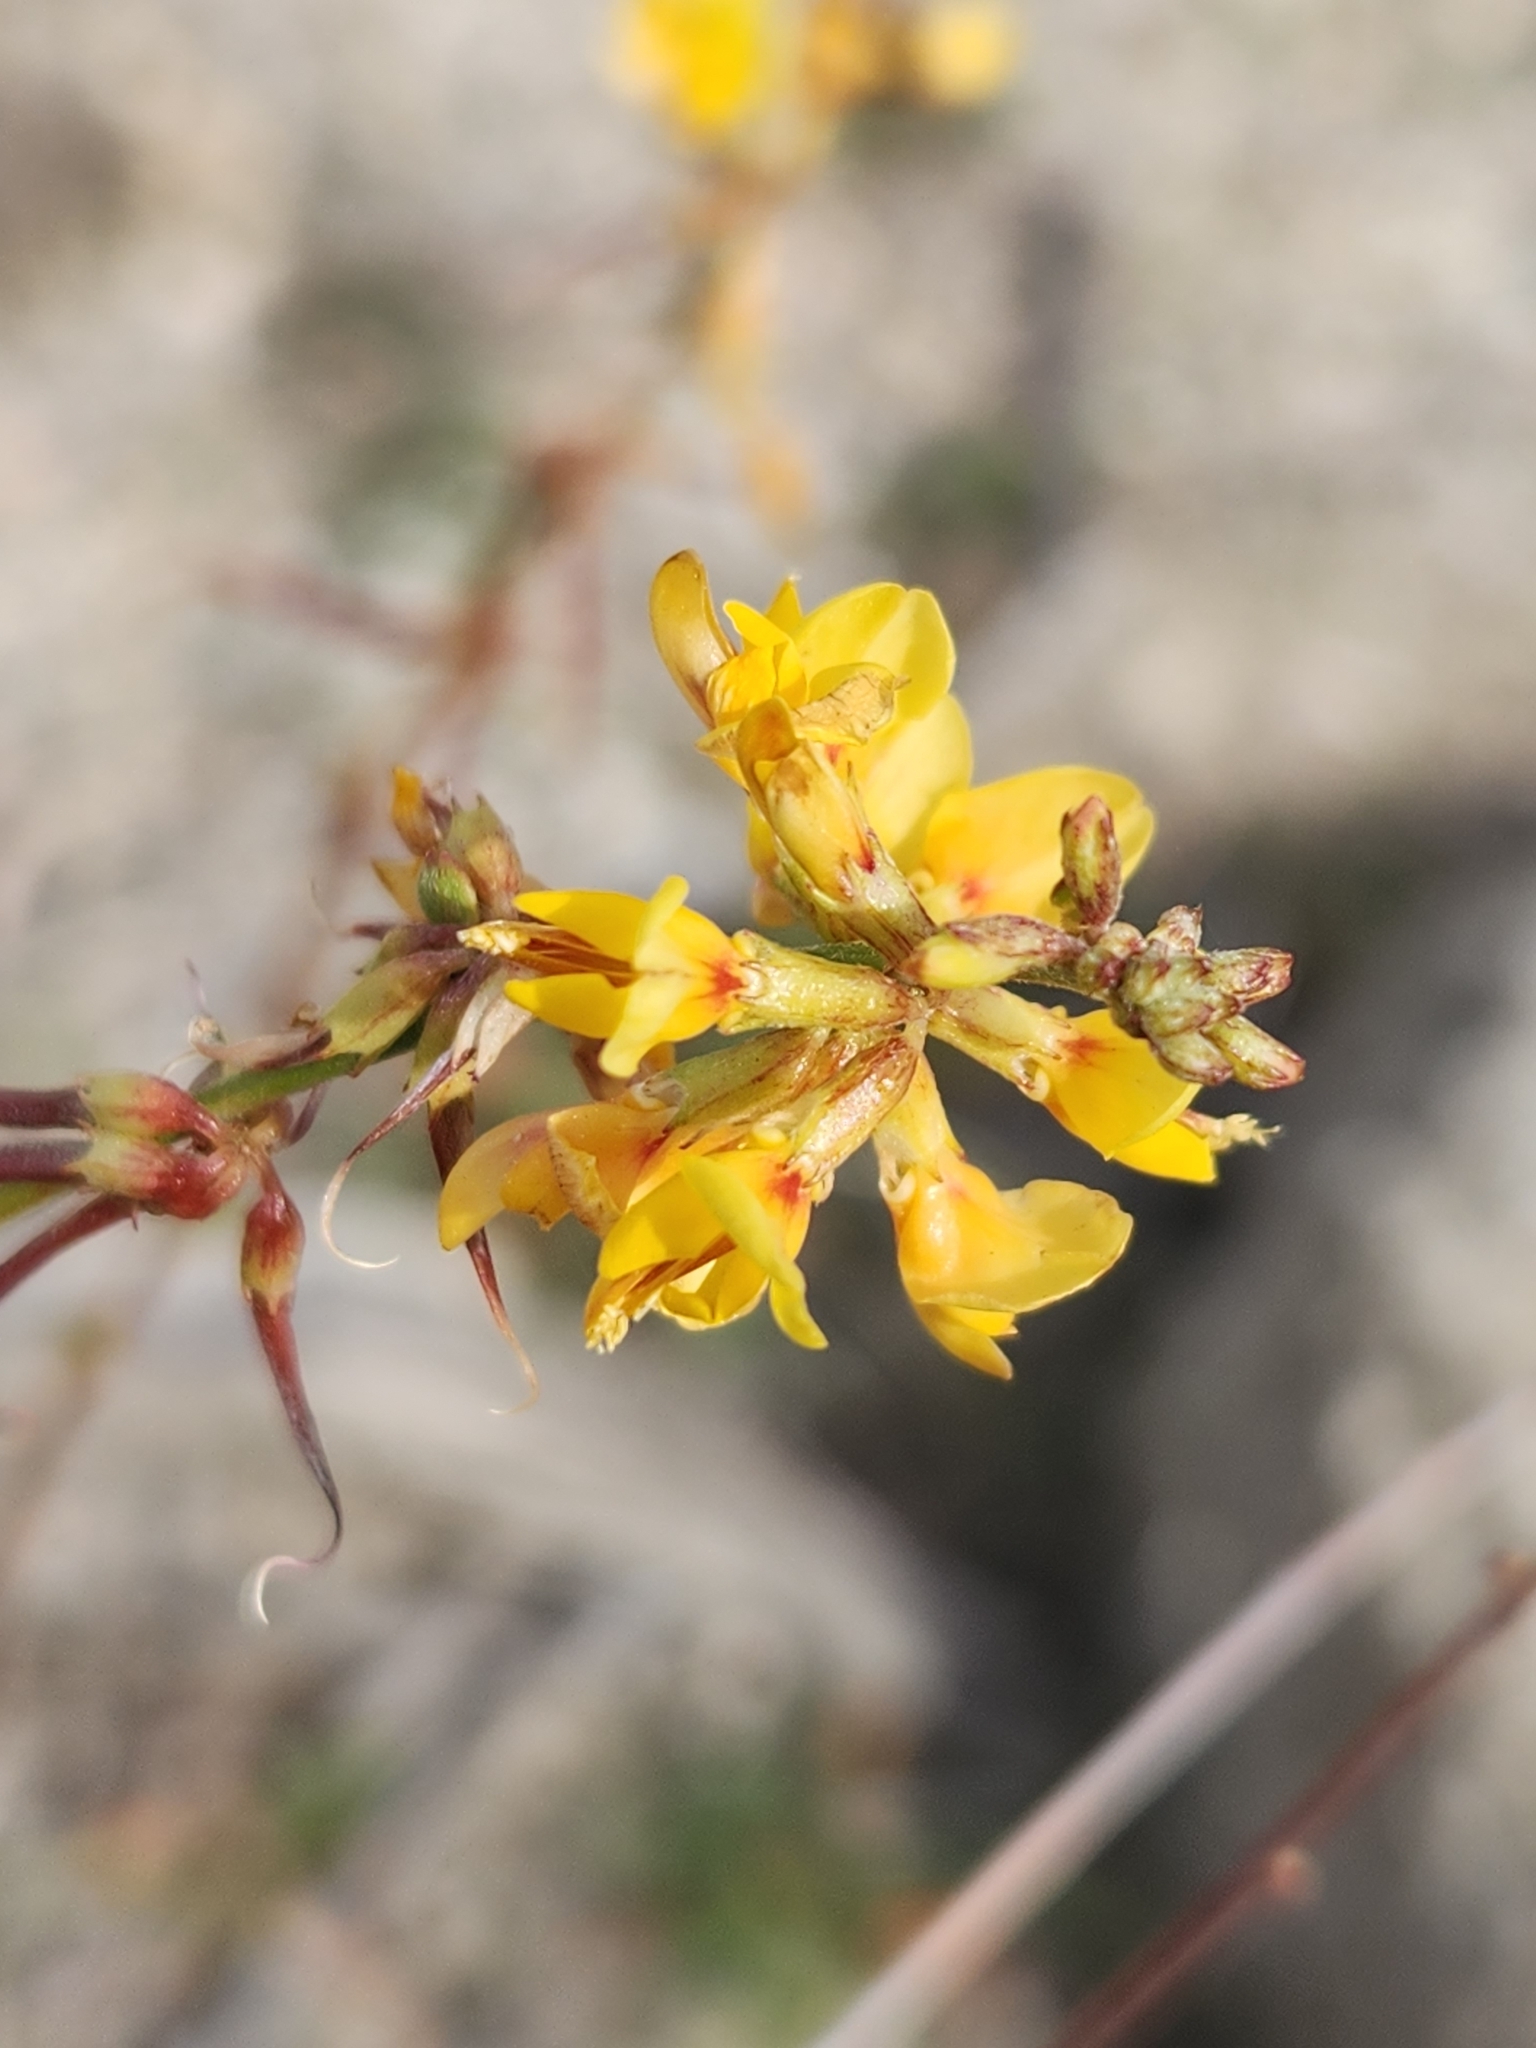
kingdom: Plantae
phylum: Tracheophyta
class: Magnoliopsida
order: Fabales
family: Fabaceae
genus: Acmispon
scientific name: Acmispon glaber
